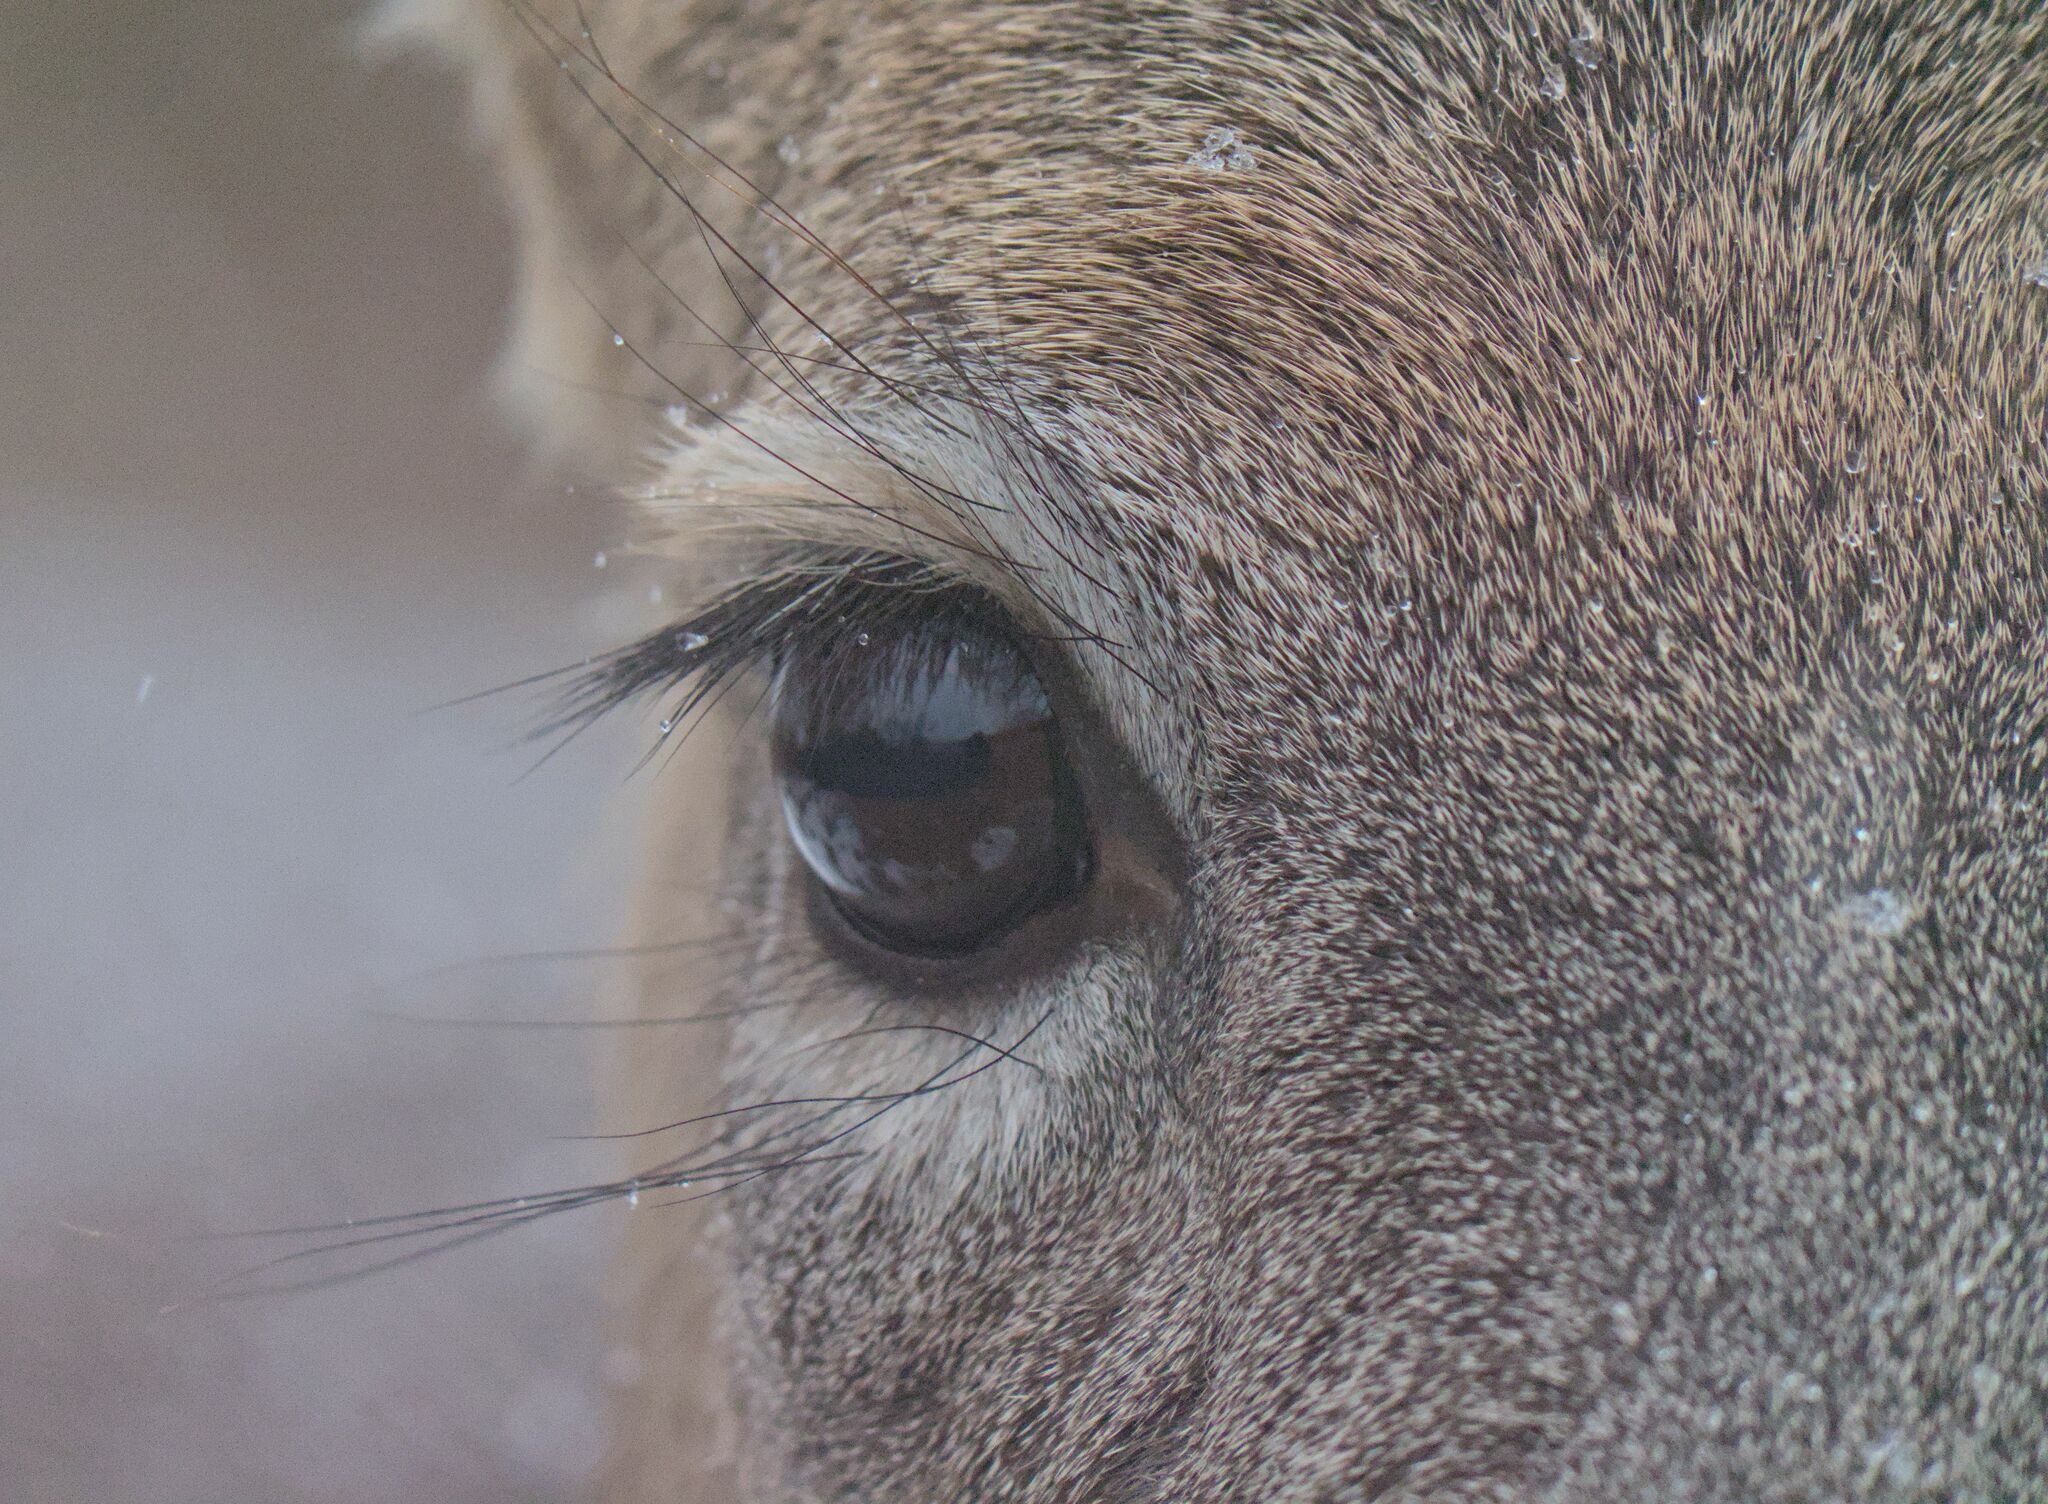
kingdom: Animalia
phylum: Chordata
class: Mammalia
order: Artiodactyla
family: Cervidae
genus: Odocoileus
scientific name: Odocoileus virginianus
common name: White-tailed deer
